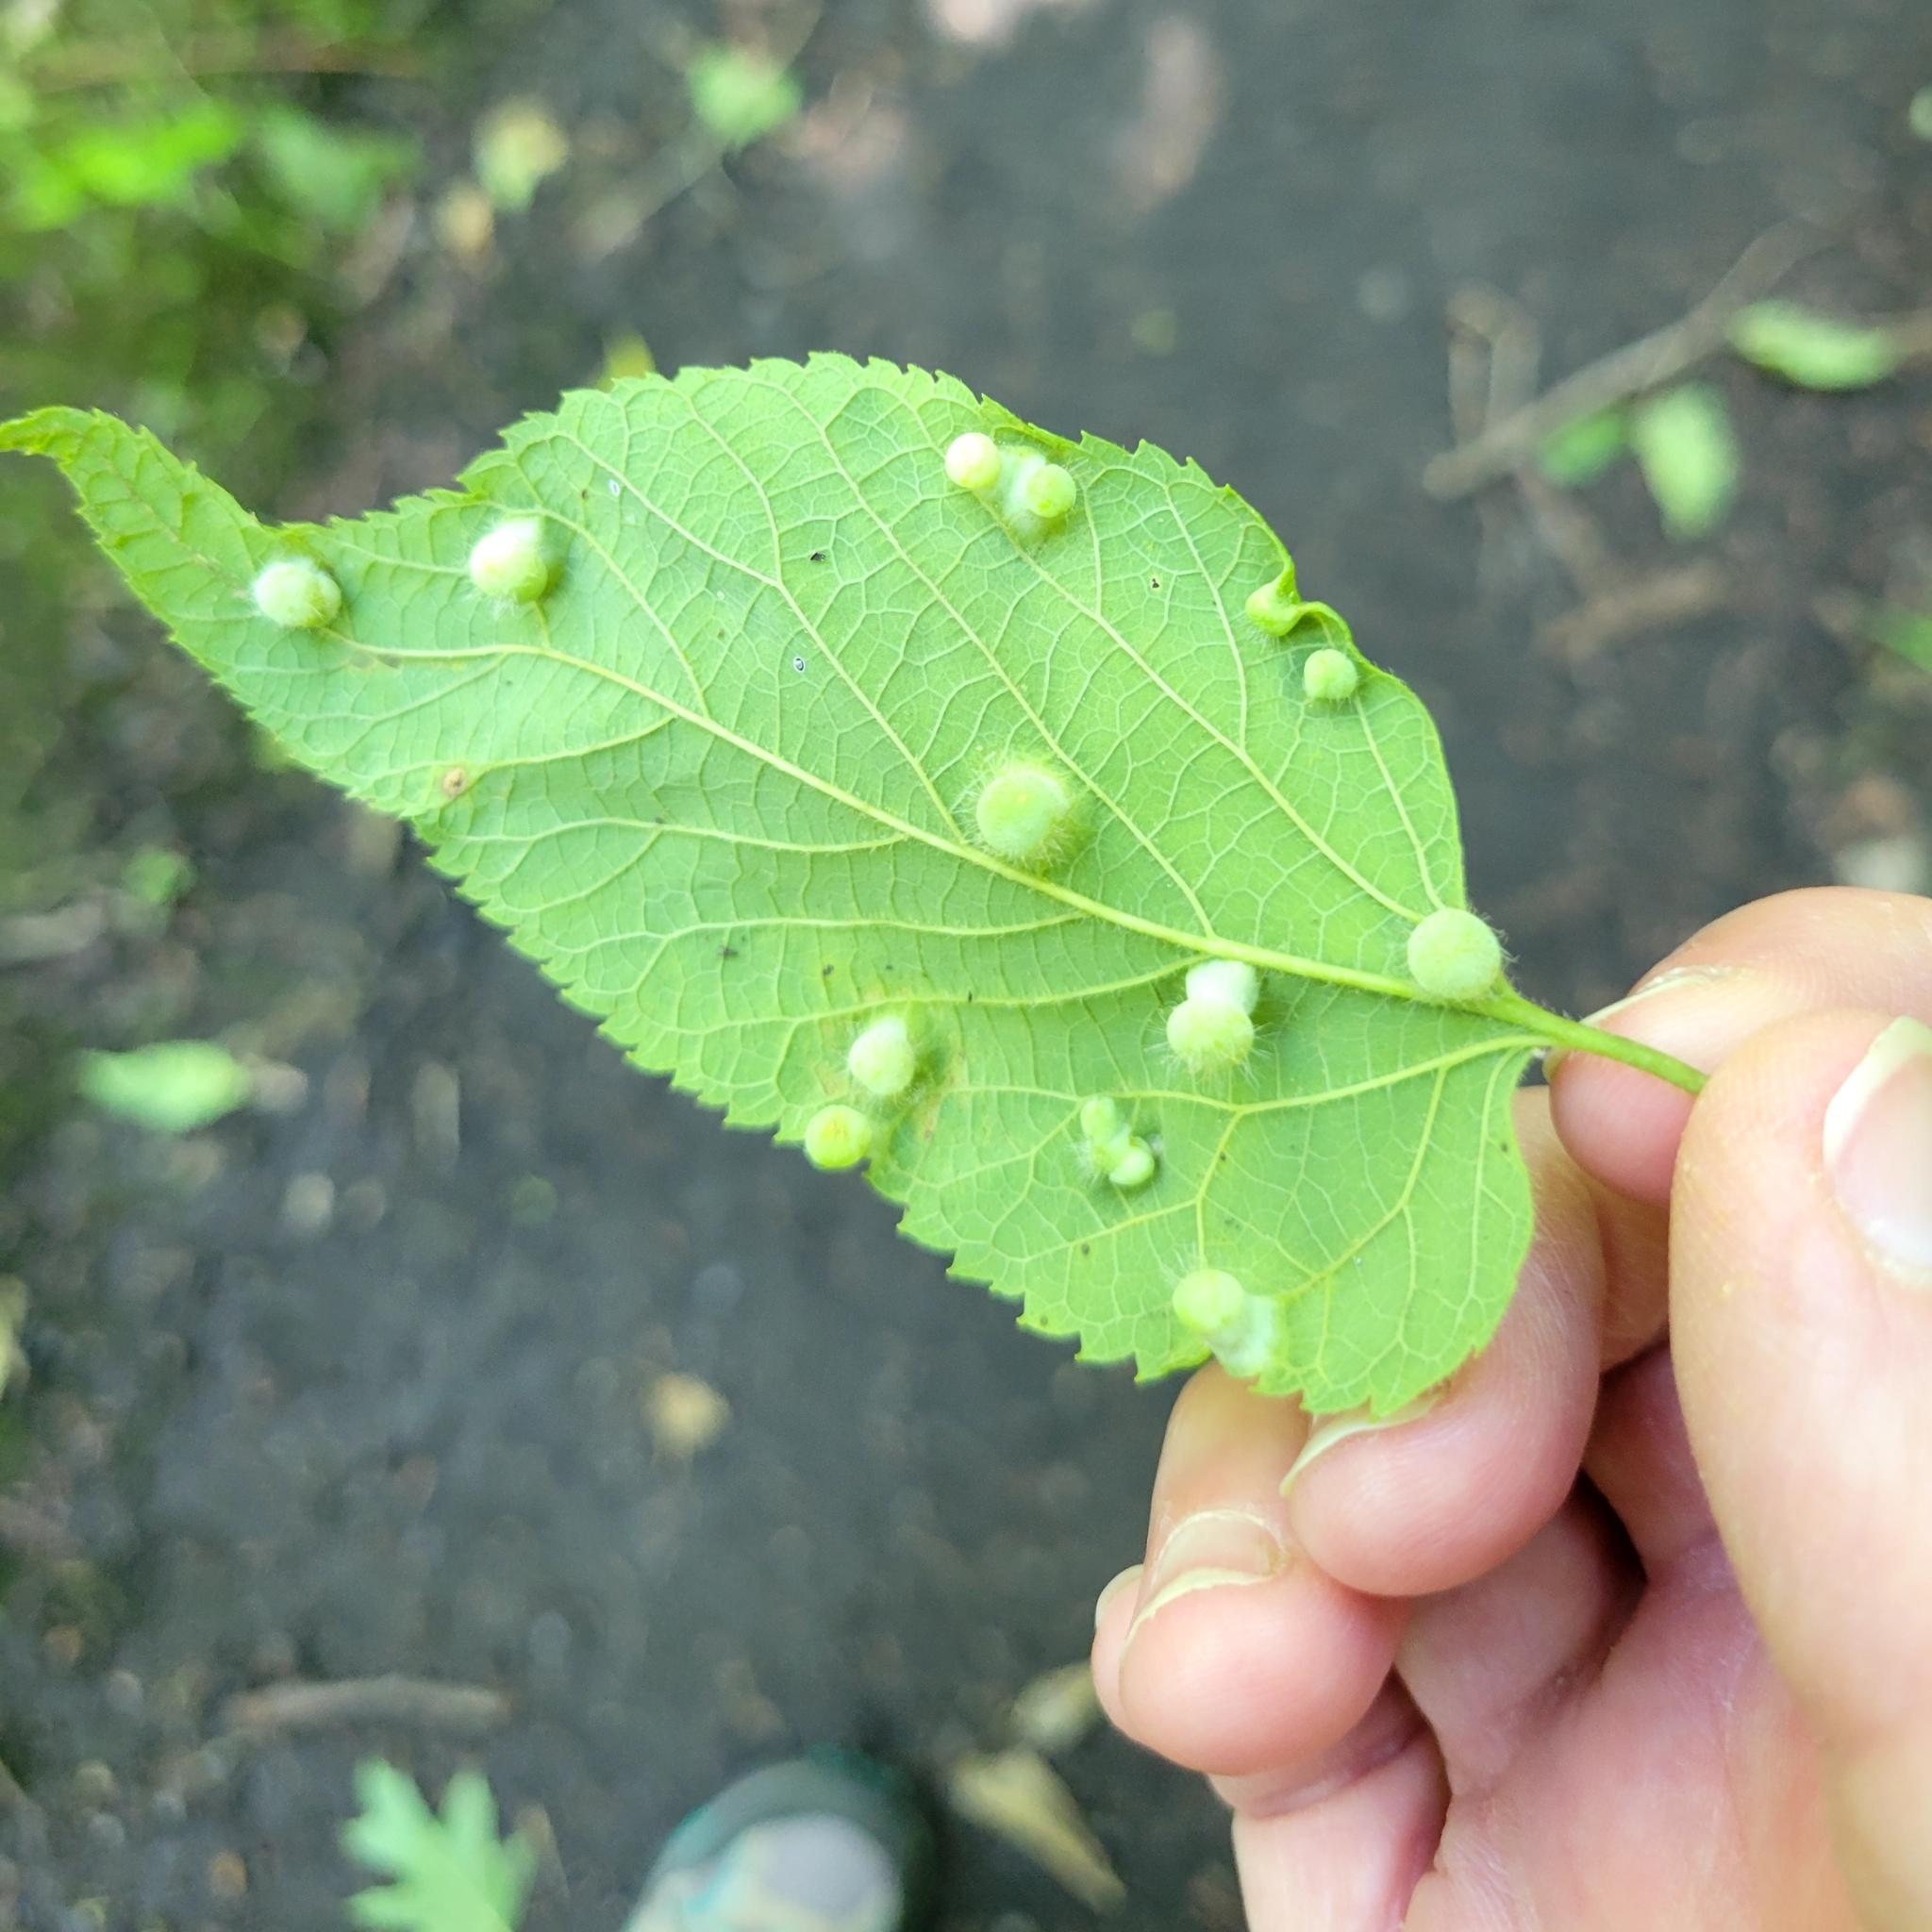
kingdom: Animalia
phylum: Arthropoda
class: Insecta
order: Hemiptera
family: Aphalaridae
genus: Pachypsylla
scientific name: Pachypsylla celtidismamma
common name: Hackberry nipplegall psyllid
